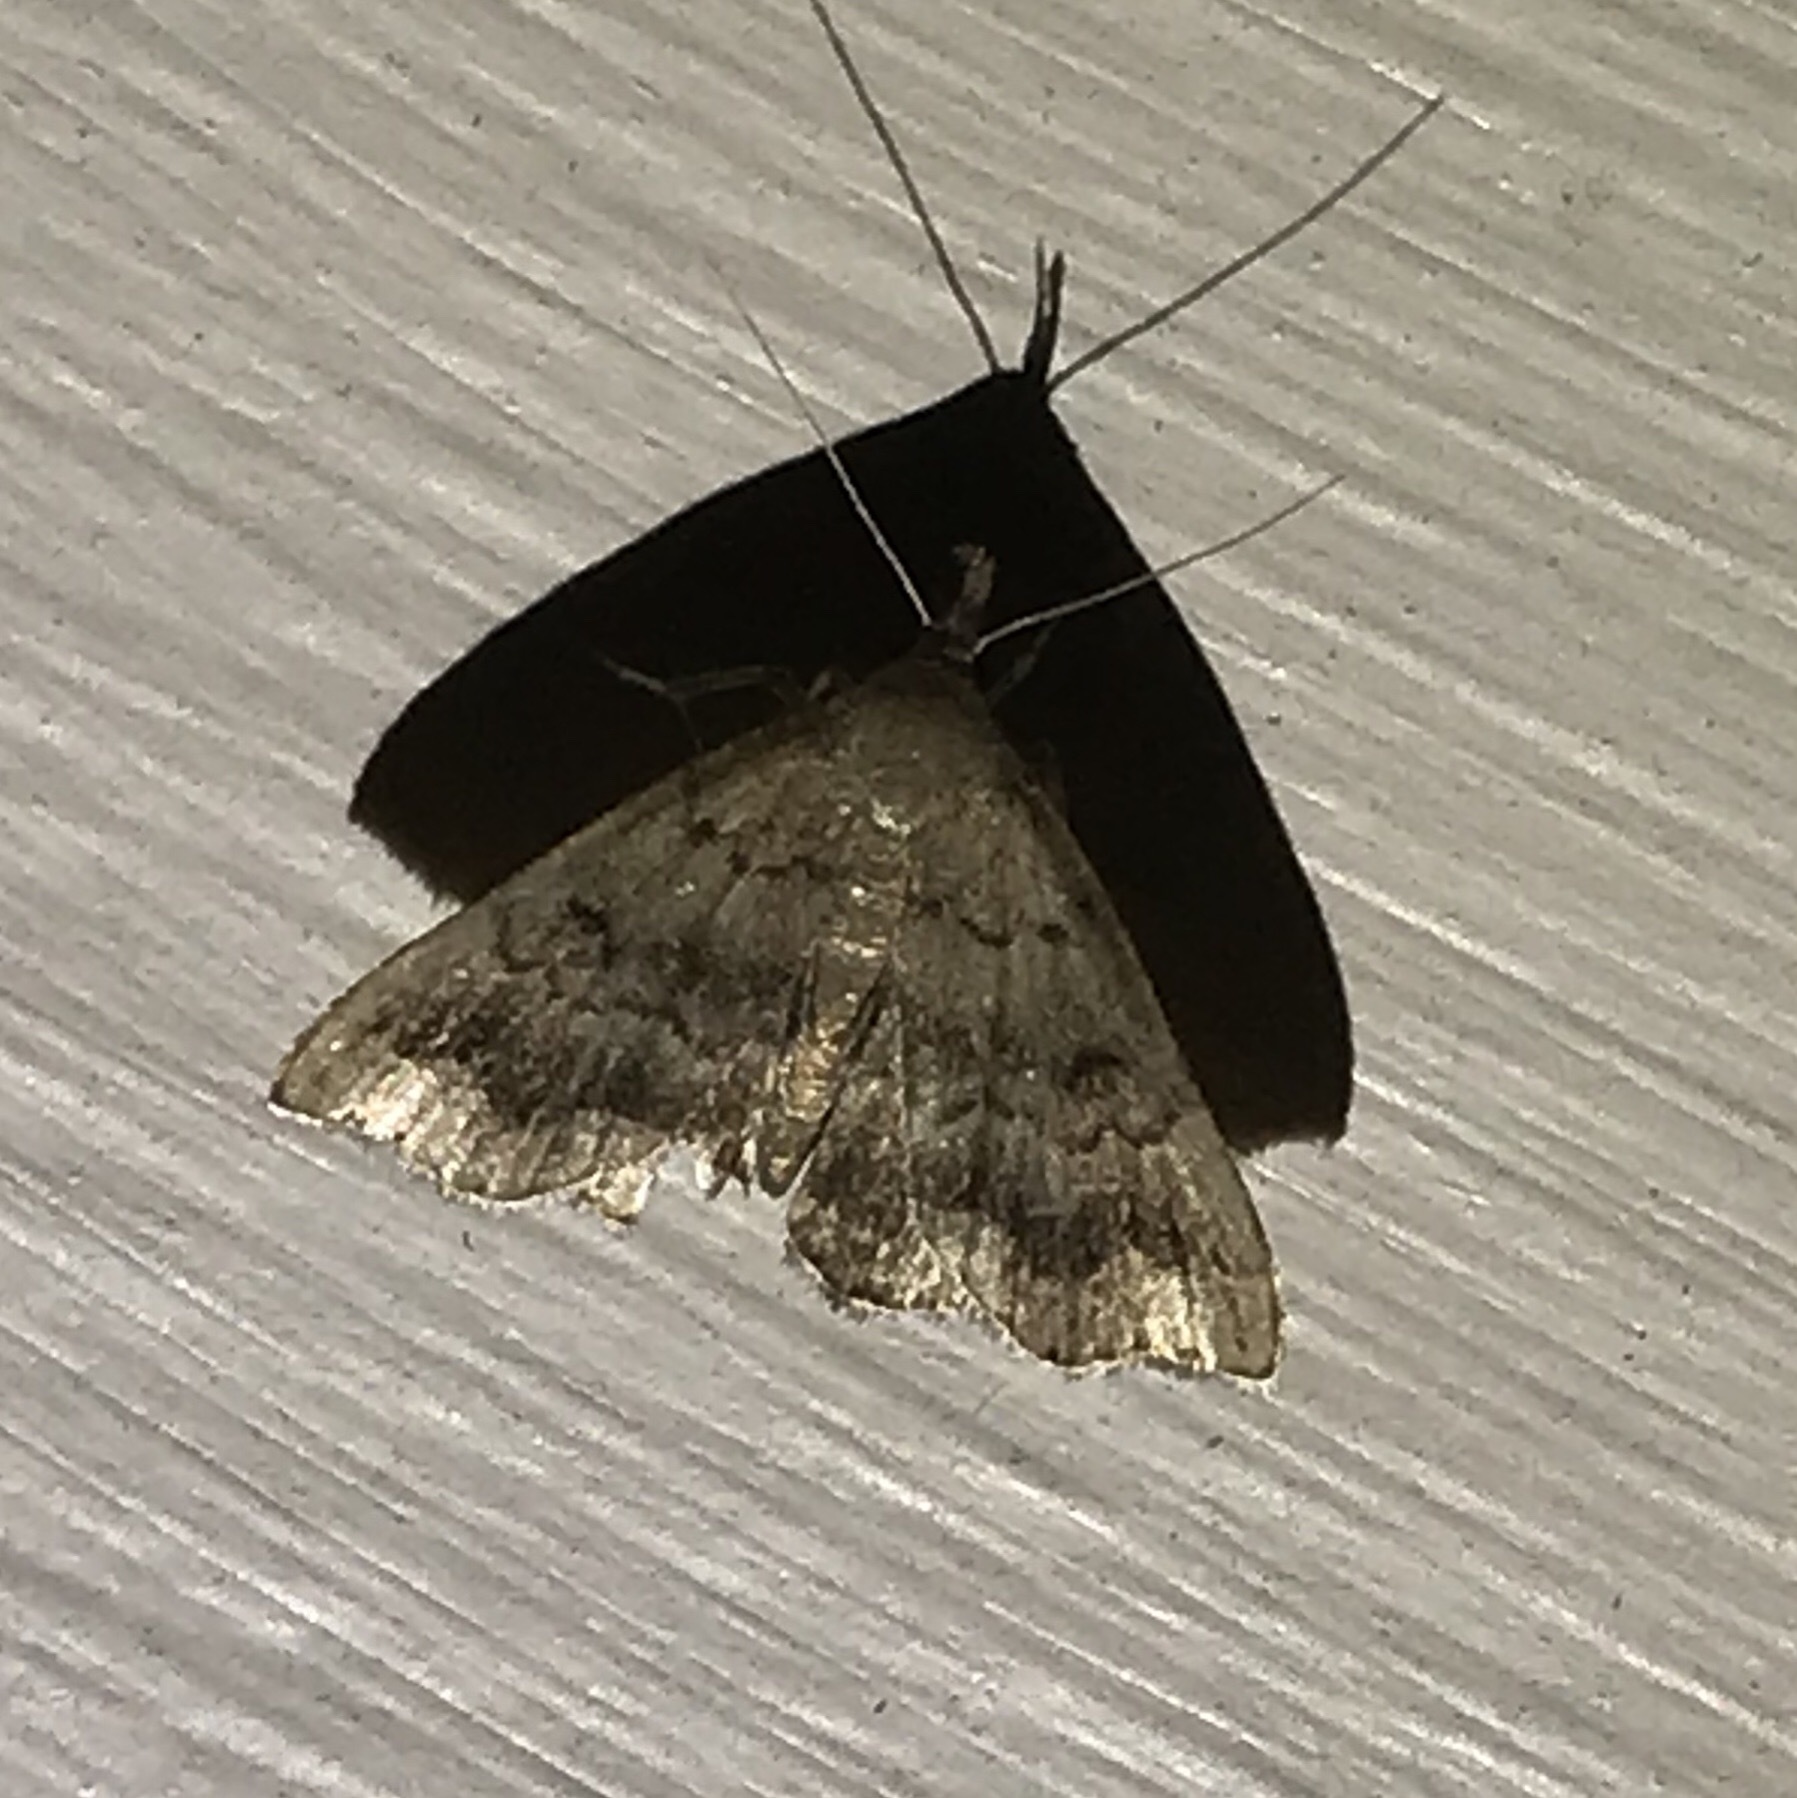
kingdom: Animalia
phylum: Arthropoda
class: Insecta
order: Lepidoptera
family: Erebidae
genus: Phalaenostola
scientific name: Phalaenostola larentioides
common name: Black-banded owlet
